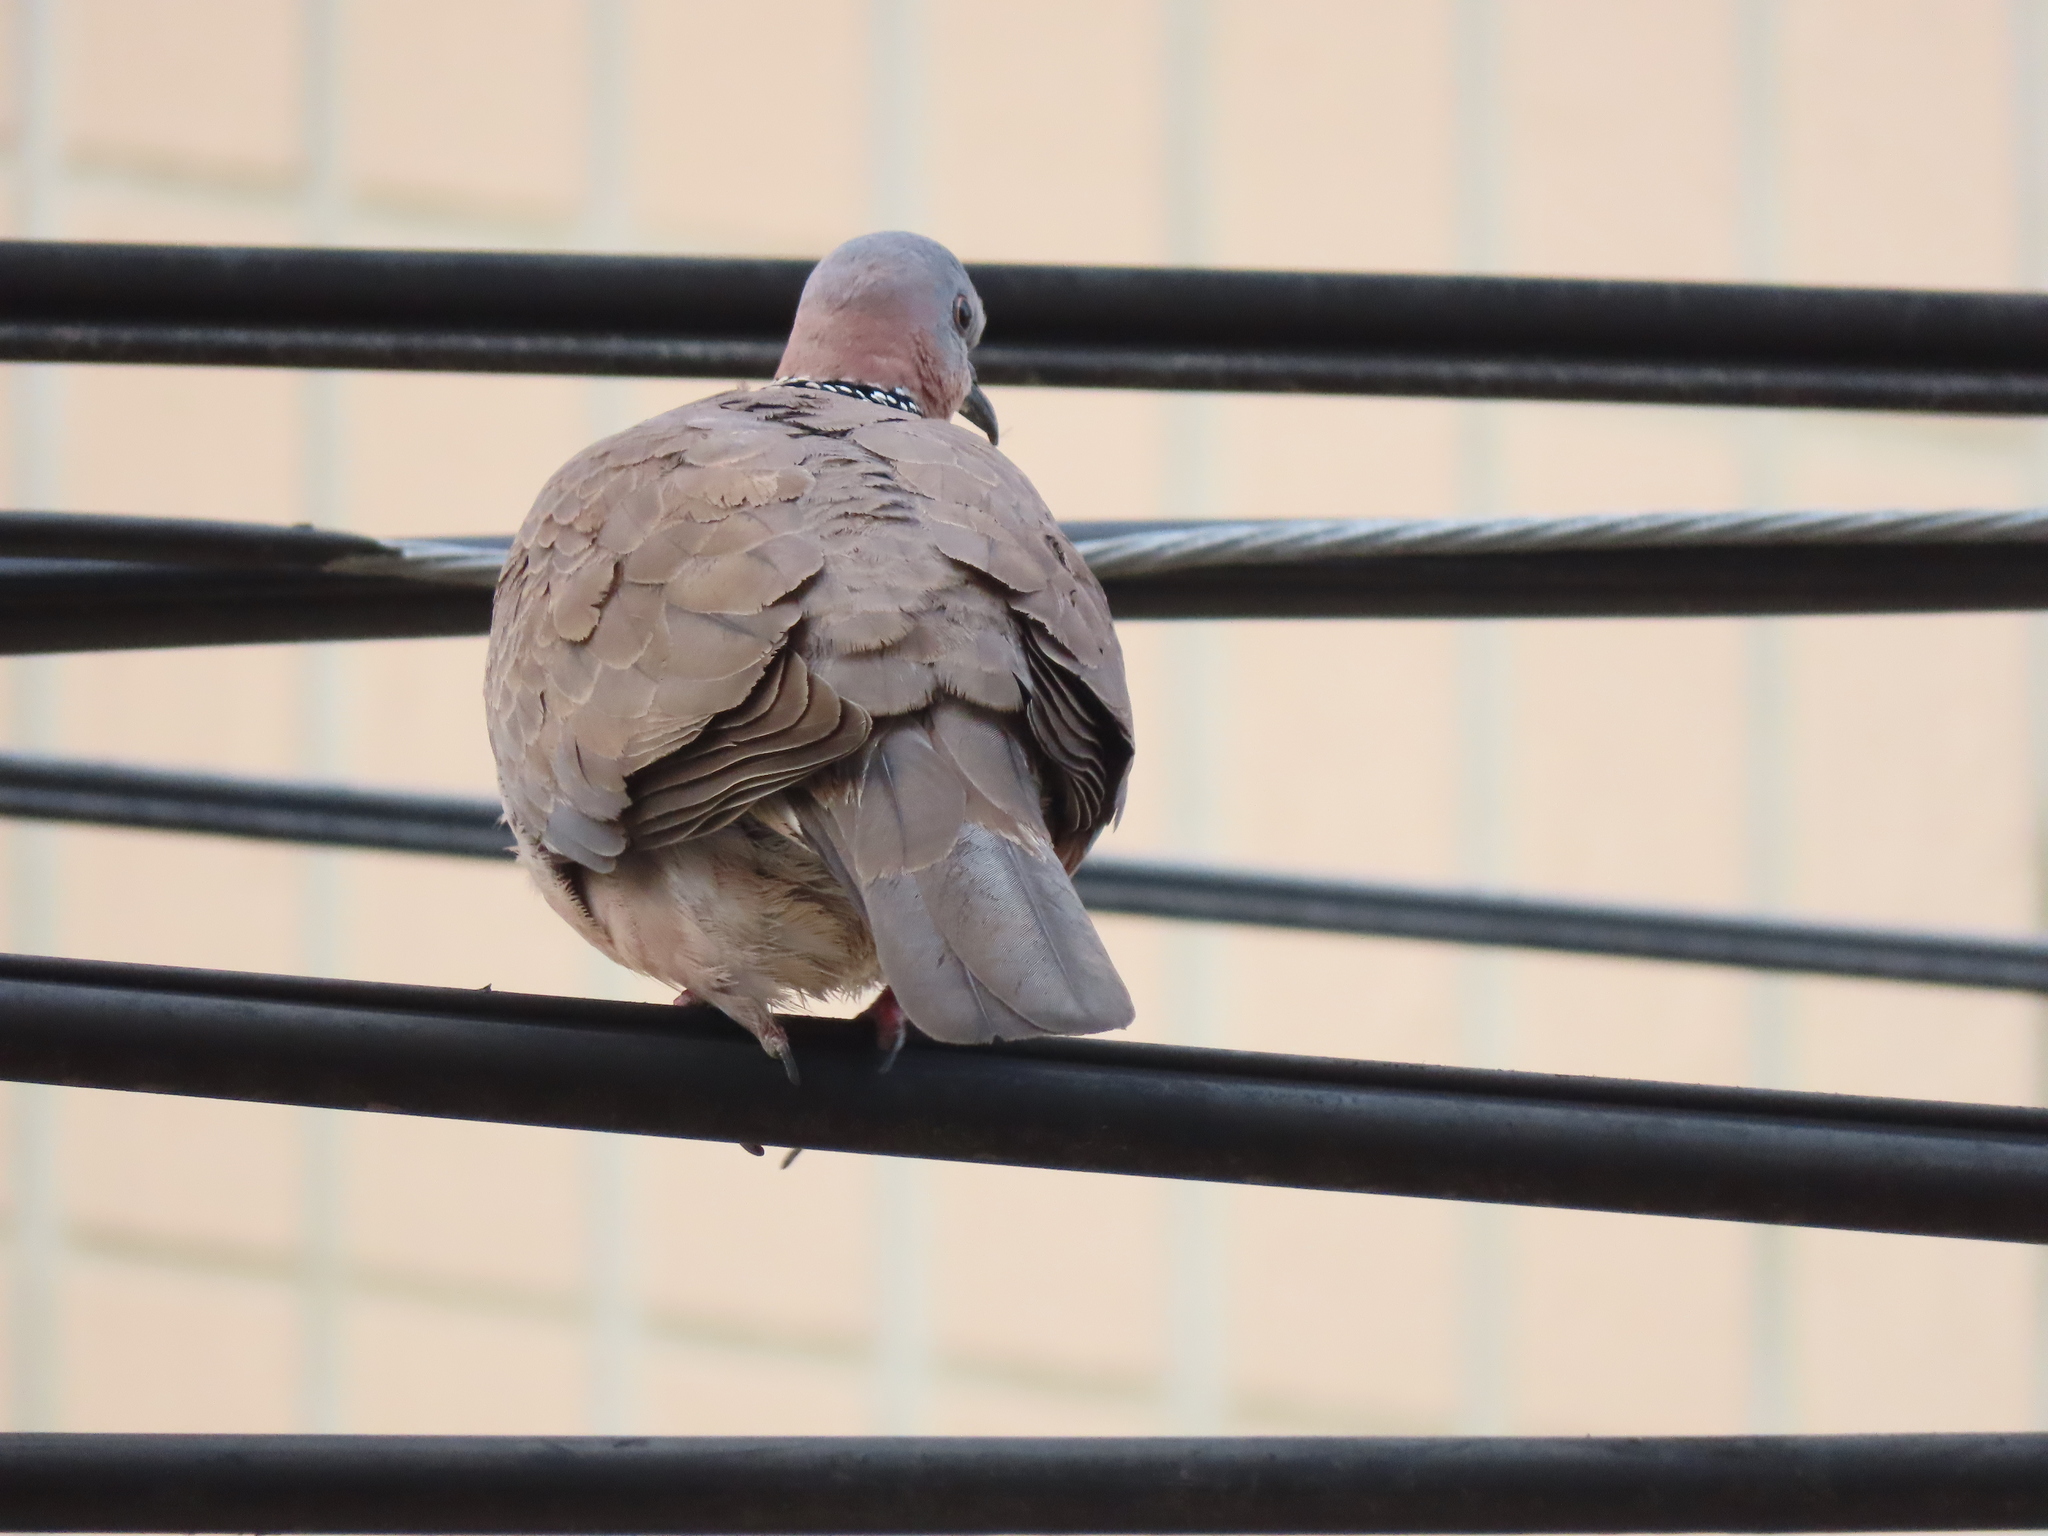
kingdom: Animalia
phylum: Chordata
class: Aves
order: Columbiformes
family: Columbidae
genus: Spilopelia
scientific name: Spilopelia chinensis
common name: Spotted dove
